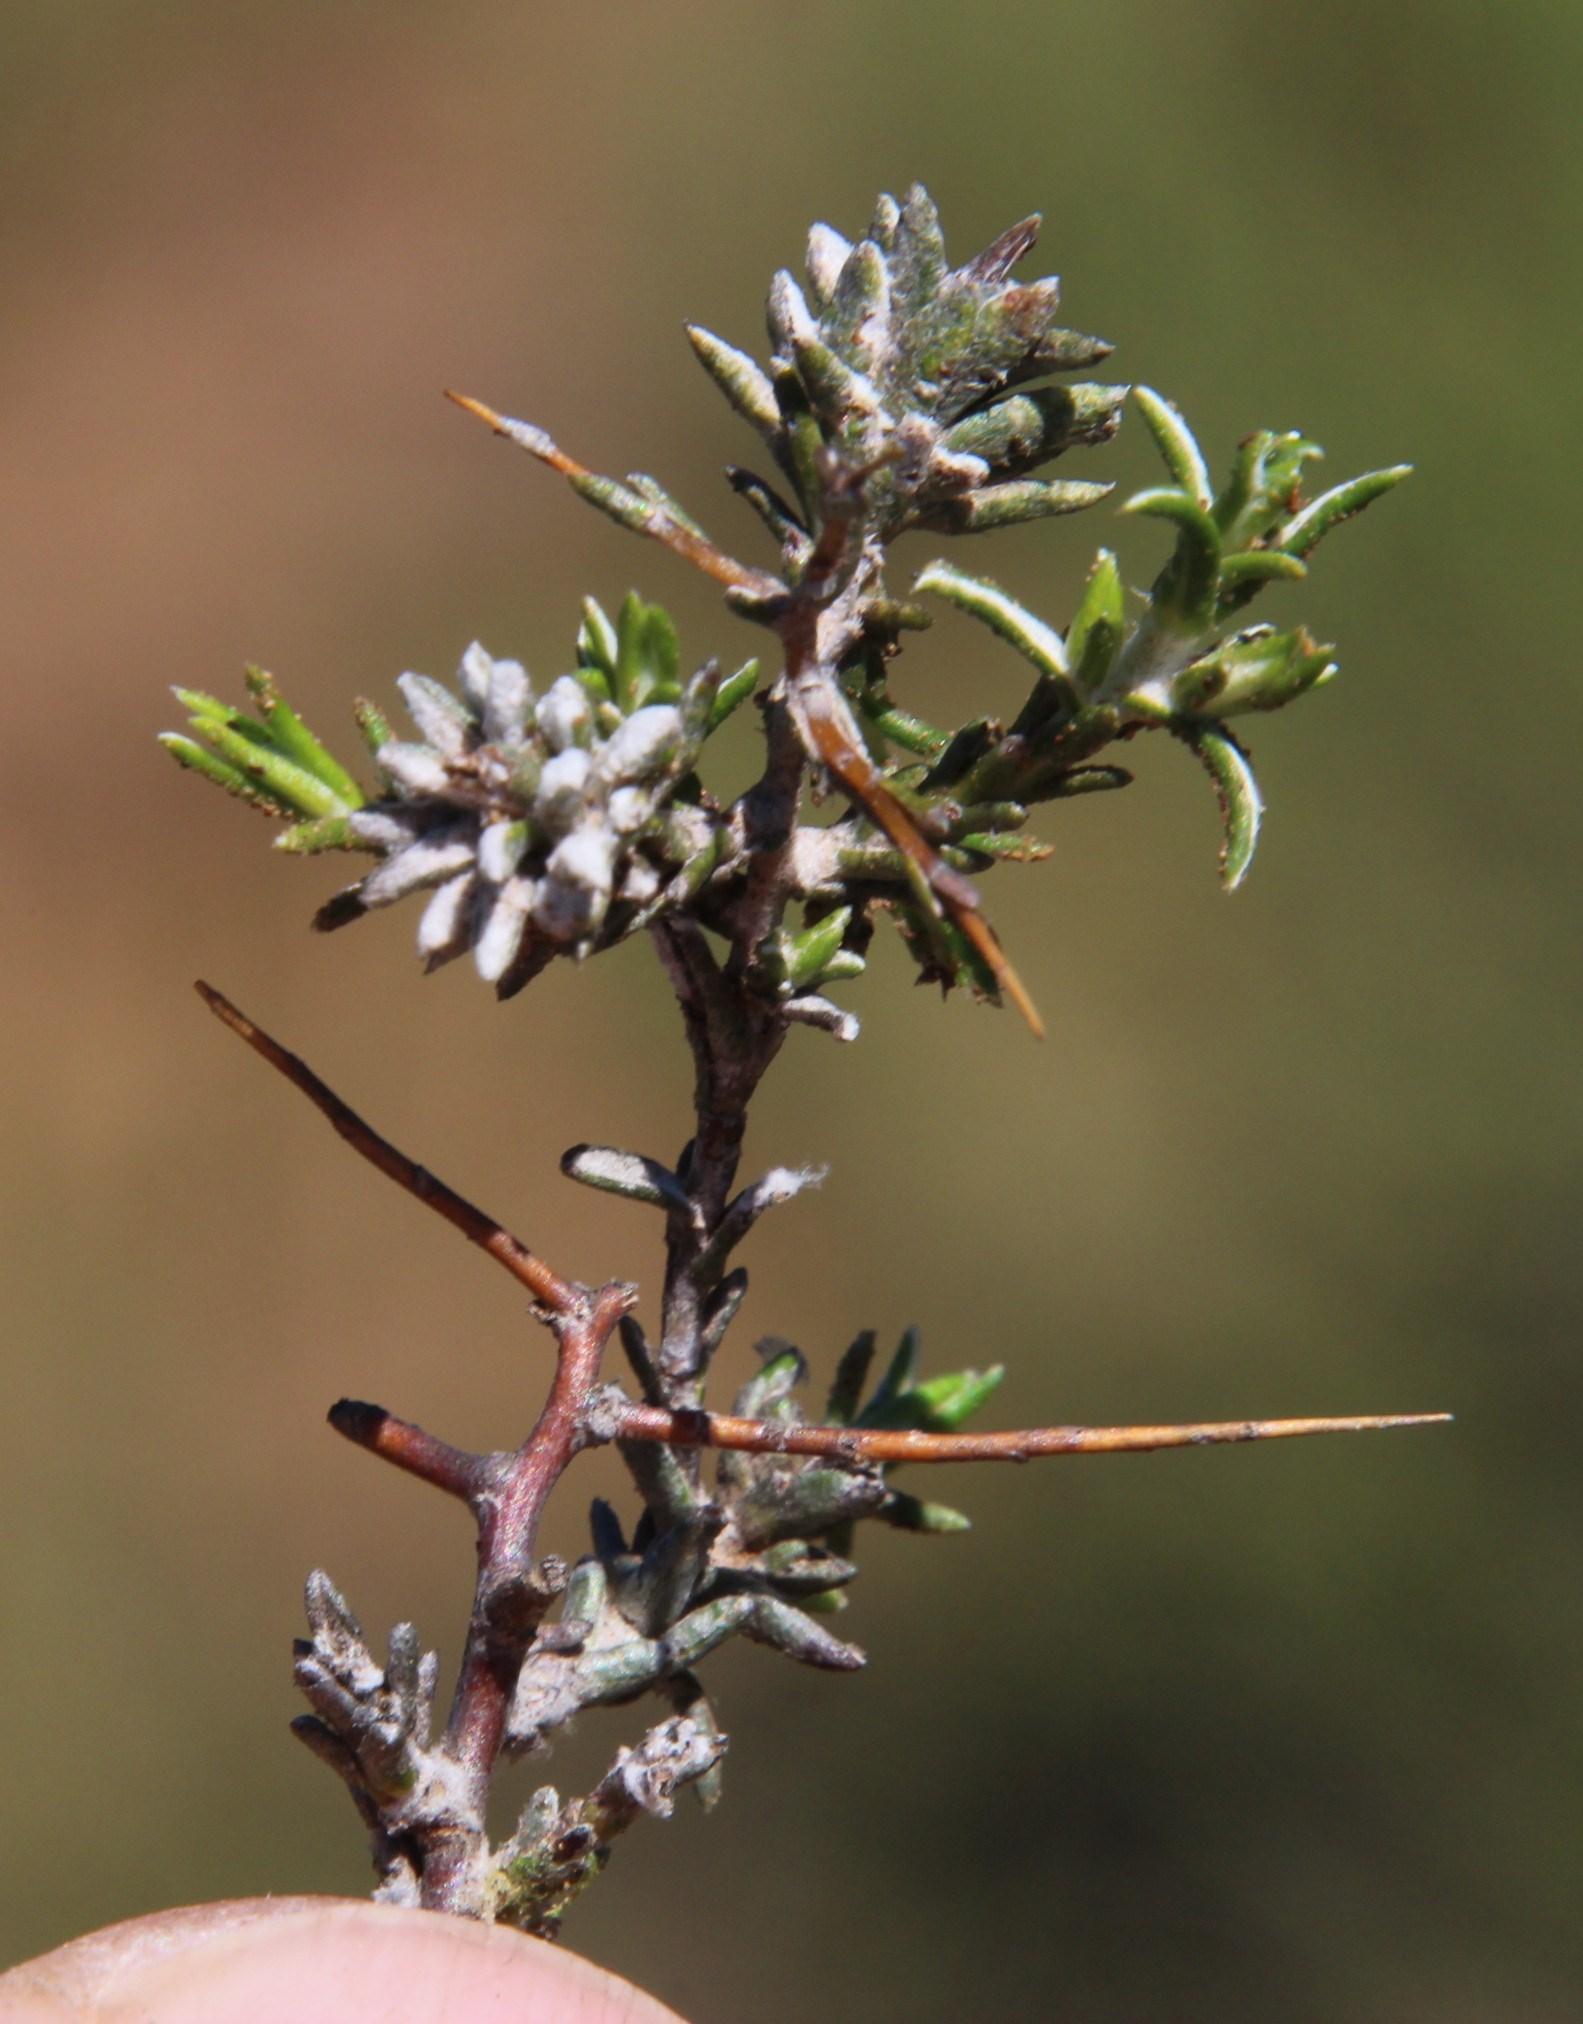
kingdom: Plantae
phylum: Tracheophyta
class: Magnoliopsida
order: Asterales
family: Asteraceae
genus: Pterothrix
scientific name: Pterothrix spinescens
